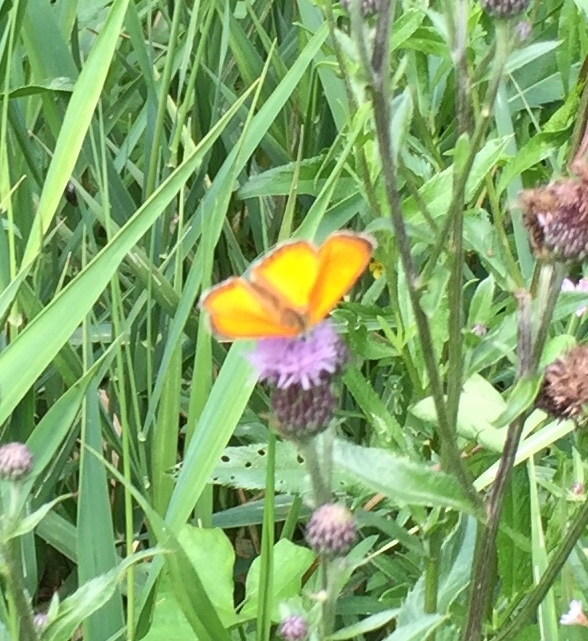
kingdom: Animalia
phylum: Arthropoda
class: Insecta
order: Lepidoptera
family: Lycaenidae
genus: Lycaena
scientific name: Lycaena virgaureae
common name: Scarce copper
